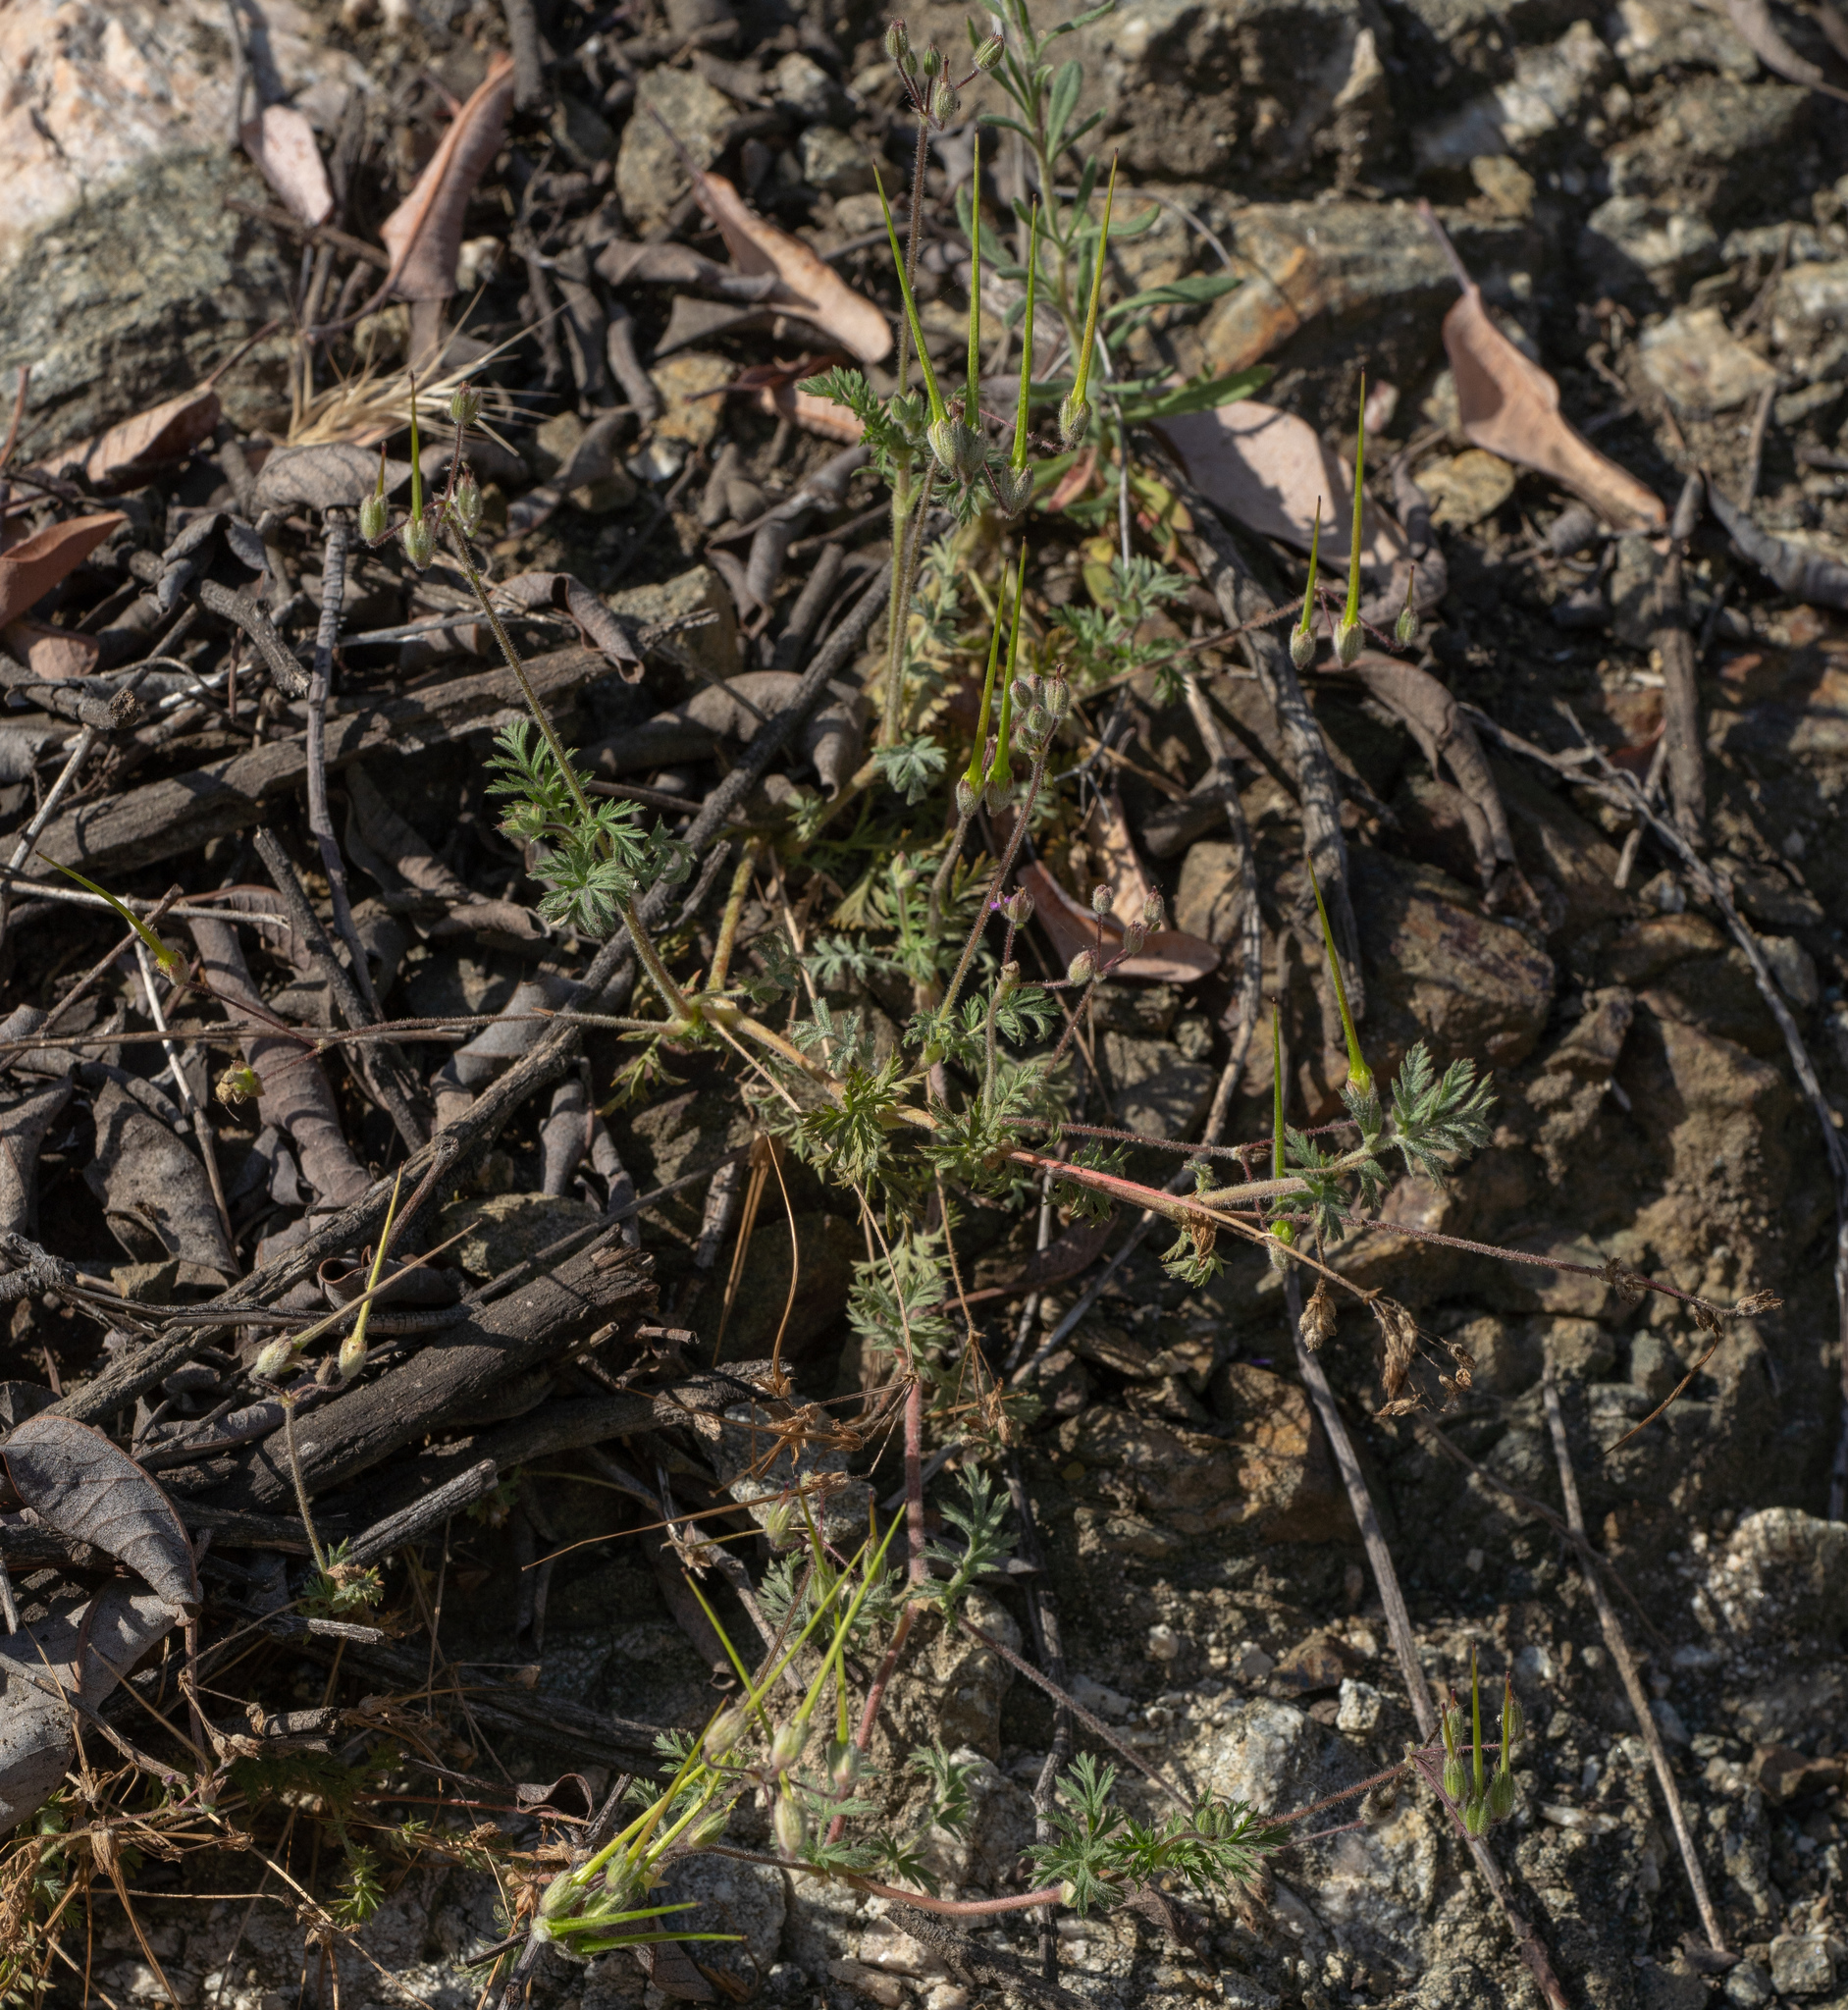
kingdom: Plantae
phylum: Tracheophyta
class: Magnoliopsida
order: Geraniales
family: Geraniaceae
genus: Erodium
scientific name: Erodium cicutarium
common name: Common stork's-bill
